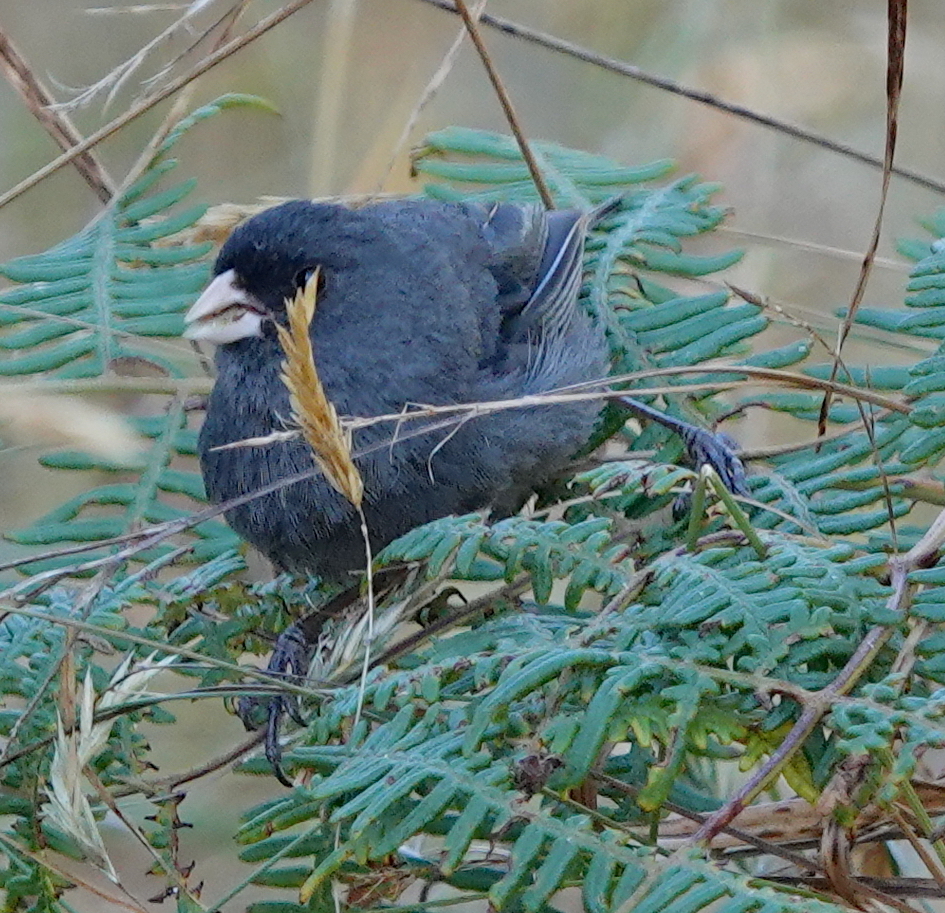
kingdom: Animalia
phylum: Chordata
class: Aves
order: Passeriformes
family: Thraupidae
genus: Catamenia
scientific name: Catamenia homochroa
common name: Paramo seedeater
